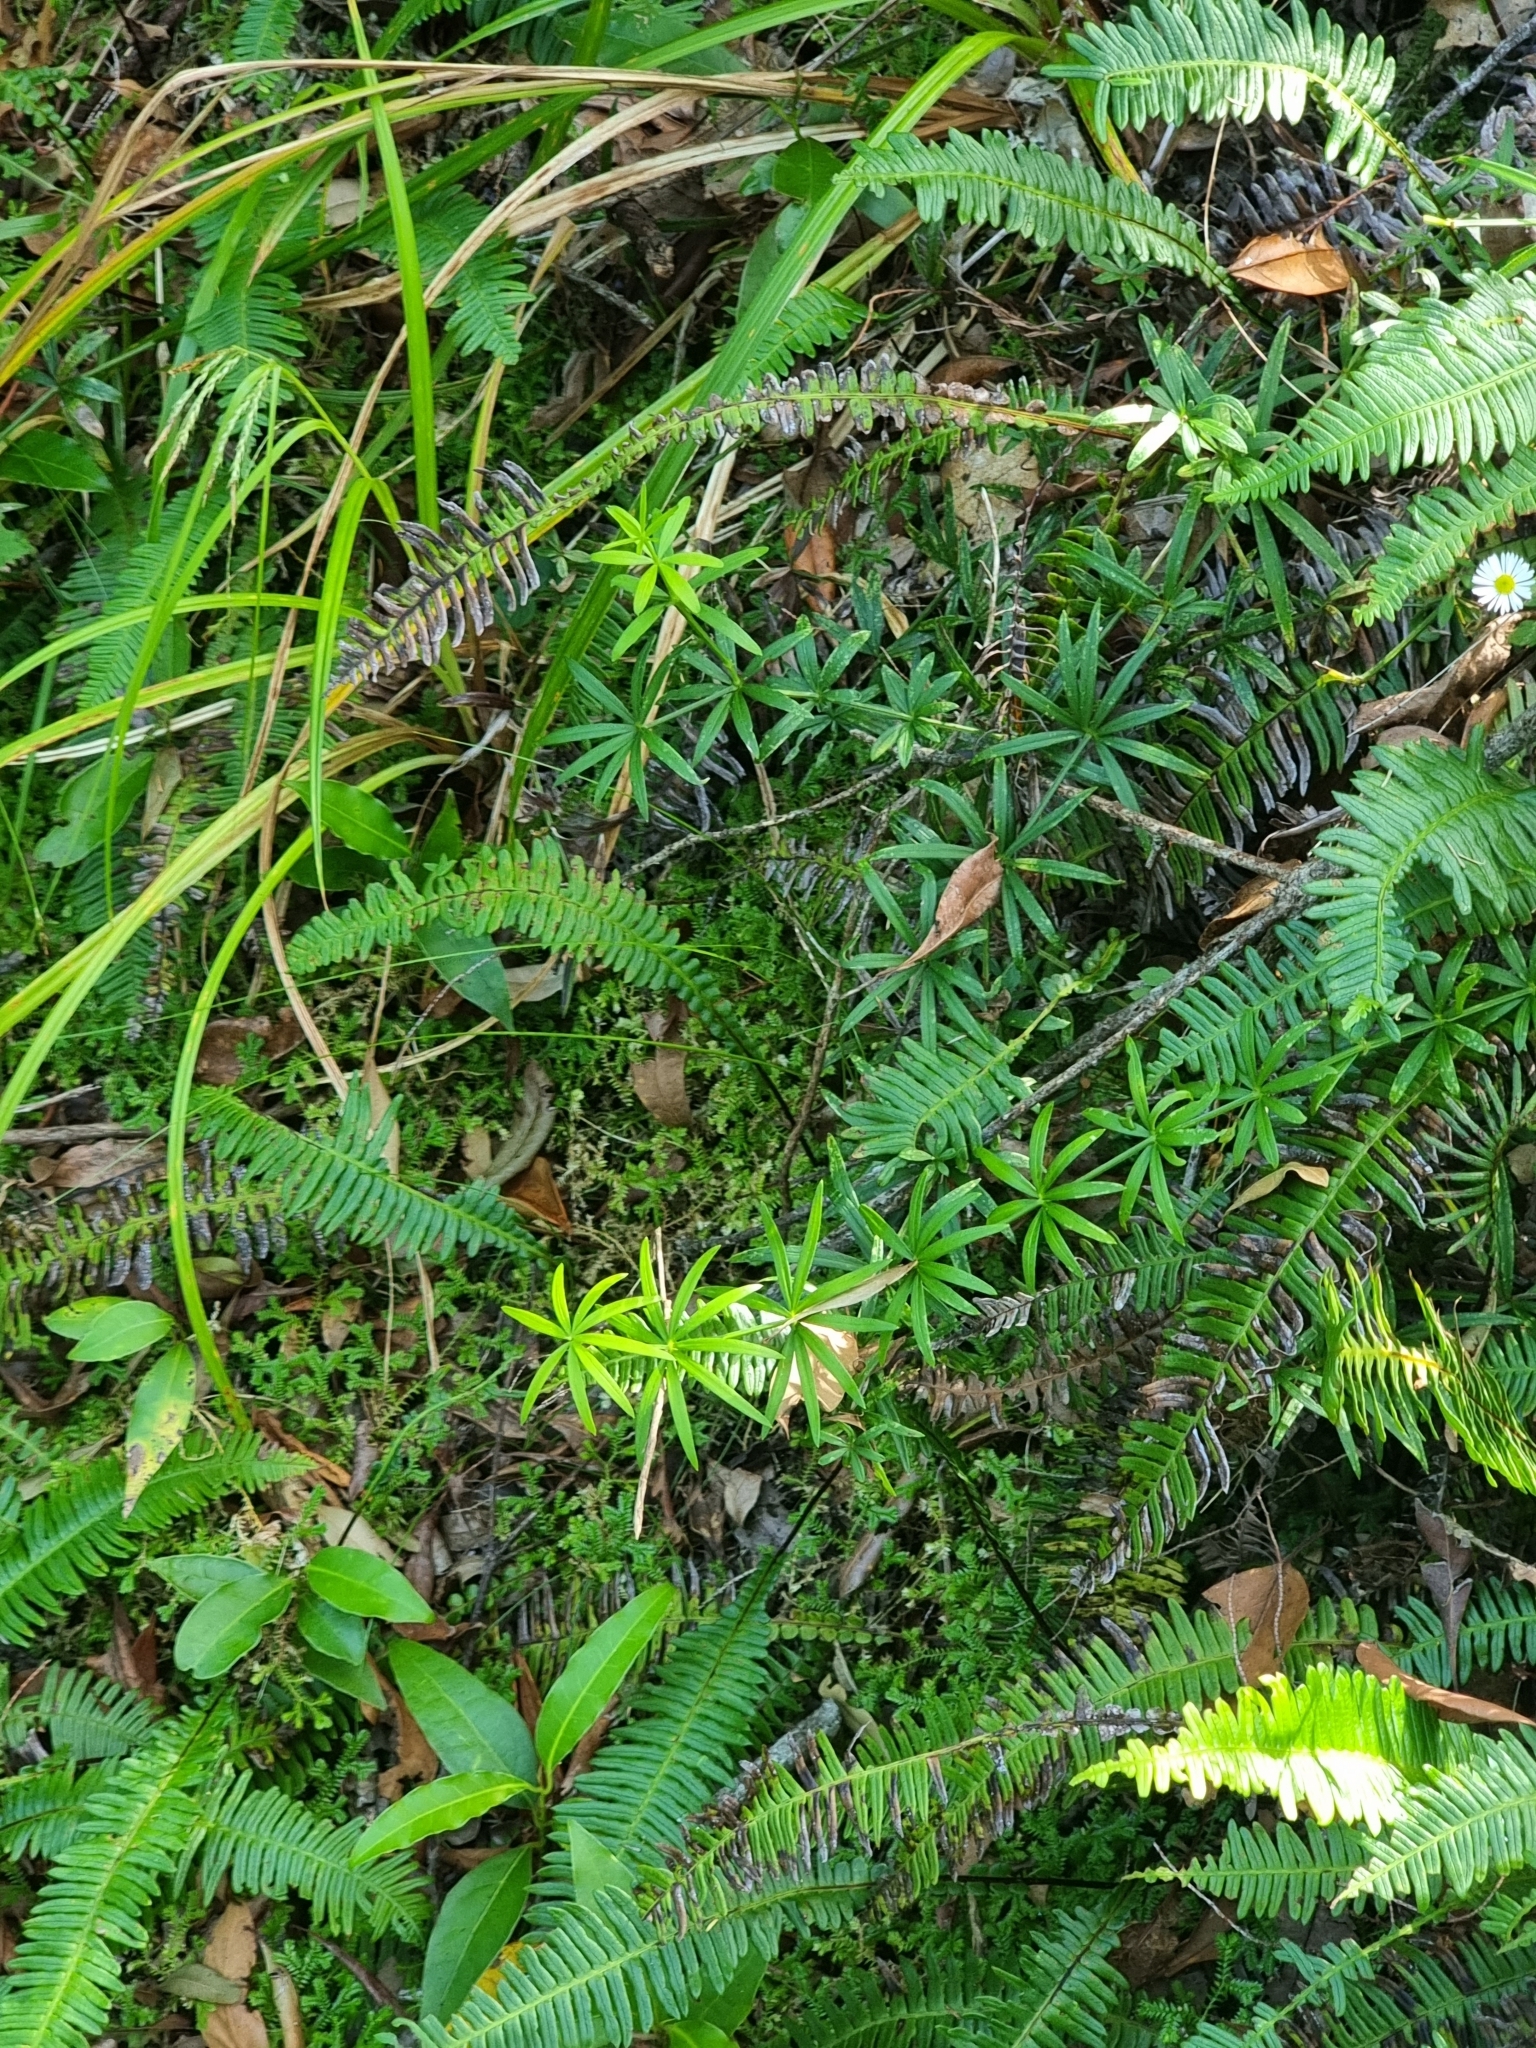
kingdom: Plantae
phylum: Tracheophyta
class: Magnoliopsida
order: Gentianales
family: Rubiaceae
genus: Rubia
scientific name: Rubia occidens
